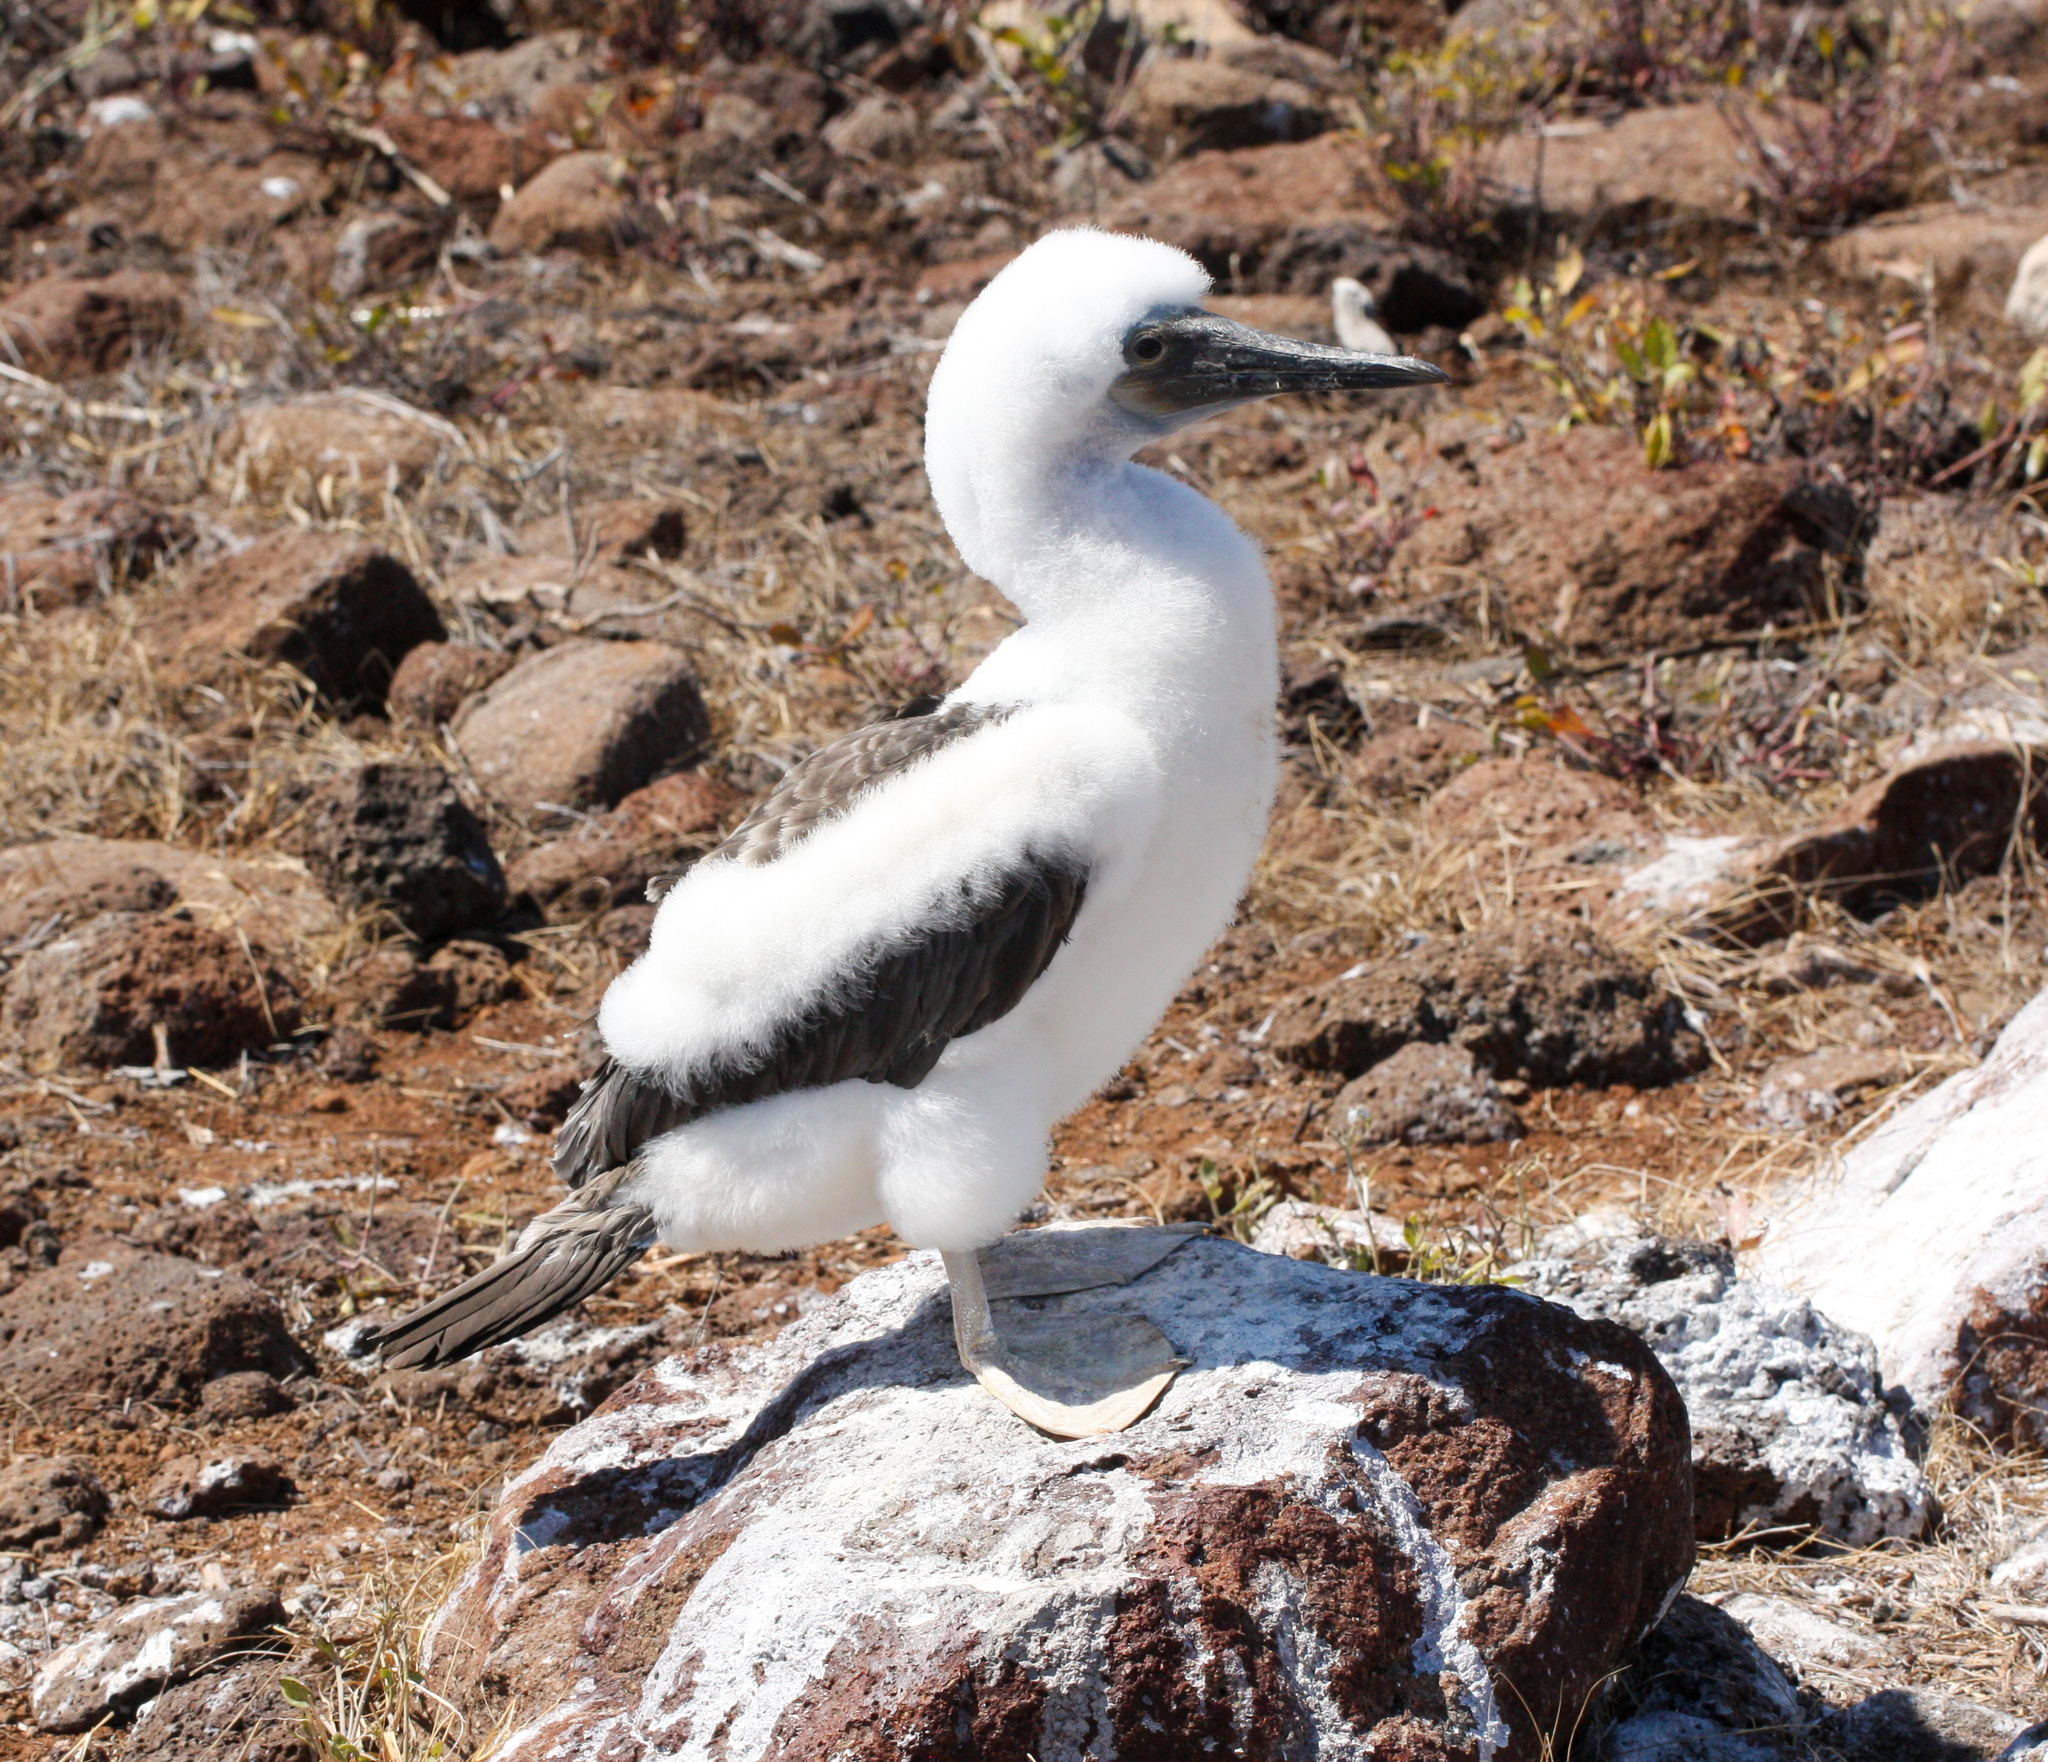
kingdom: Animalia
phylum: Chordata
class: Aves
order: Suliformes
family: Sulidae
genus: Sula
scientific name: Sula nebouxii
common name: Blue-footed booby
